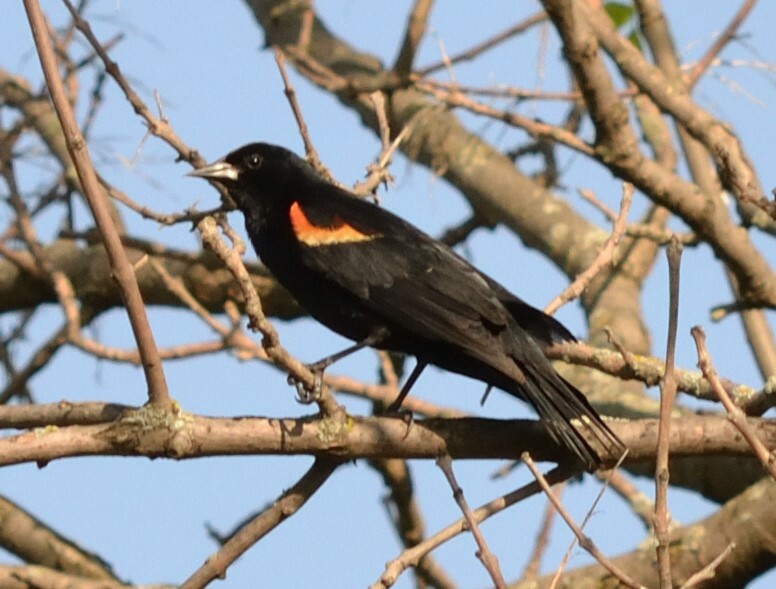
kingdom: Animalia
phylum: Chordata
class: Aves
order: Passeriformes
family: Icteridae
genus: Agelaius
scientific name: Agelaius phoeniceus
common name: Red-winged blackbird
